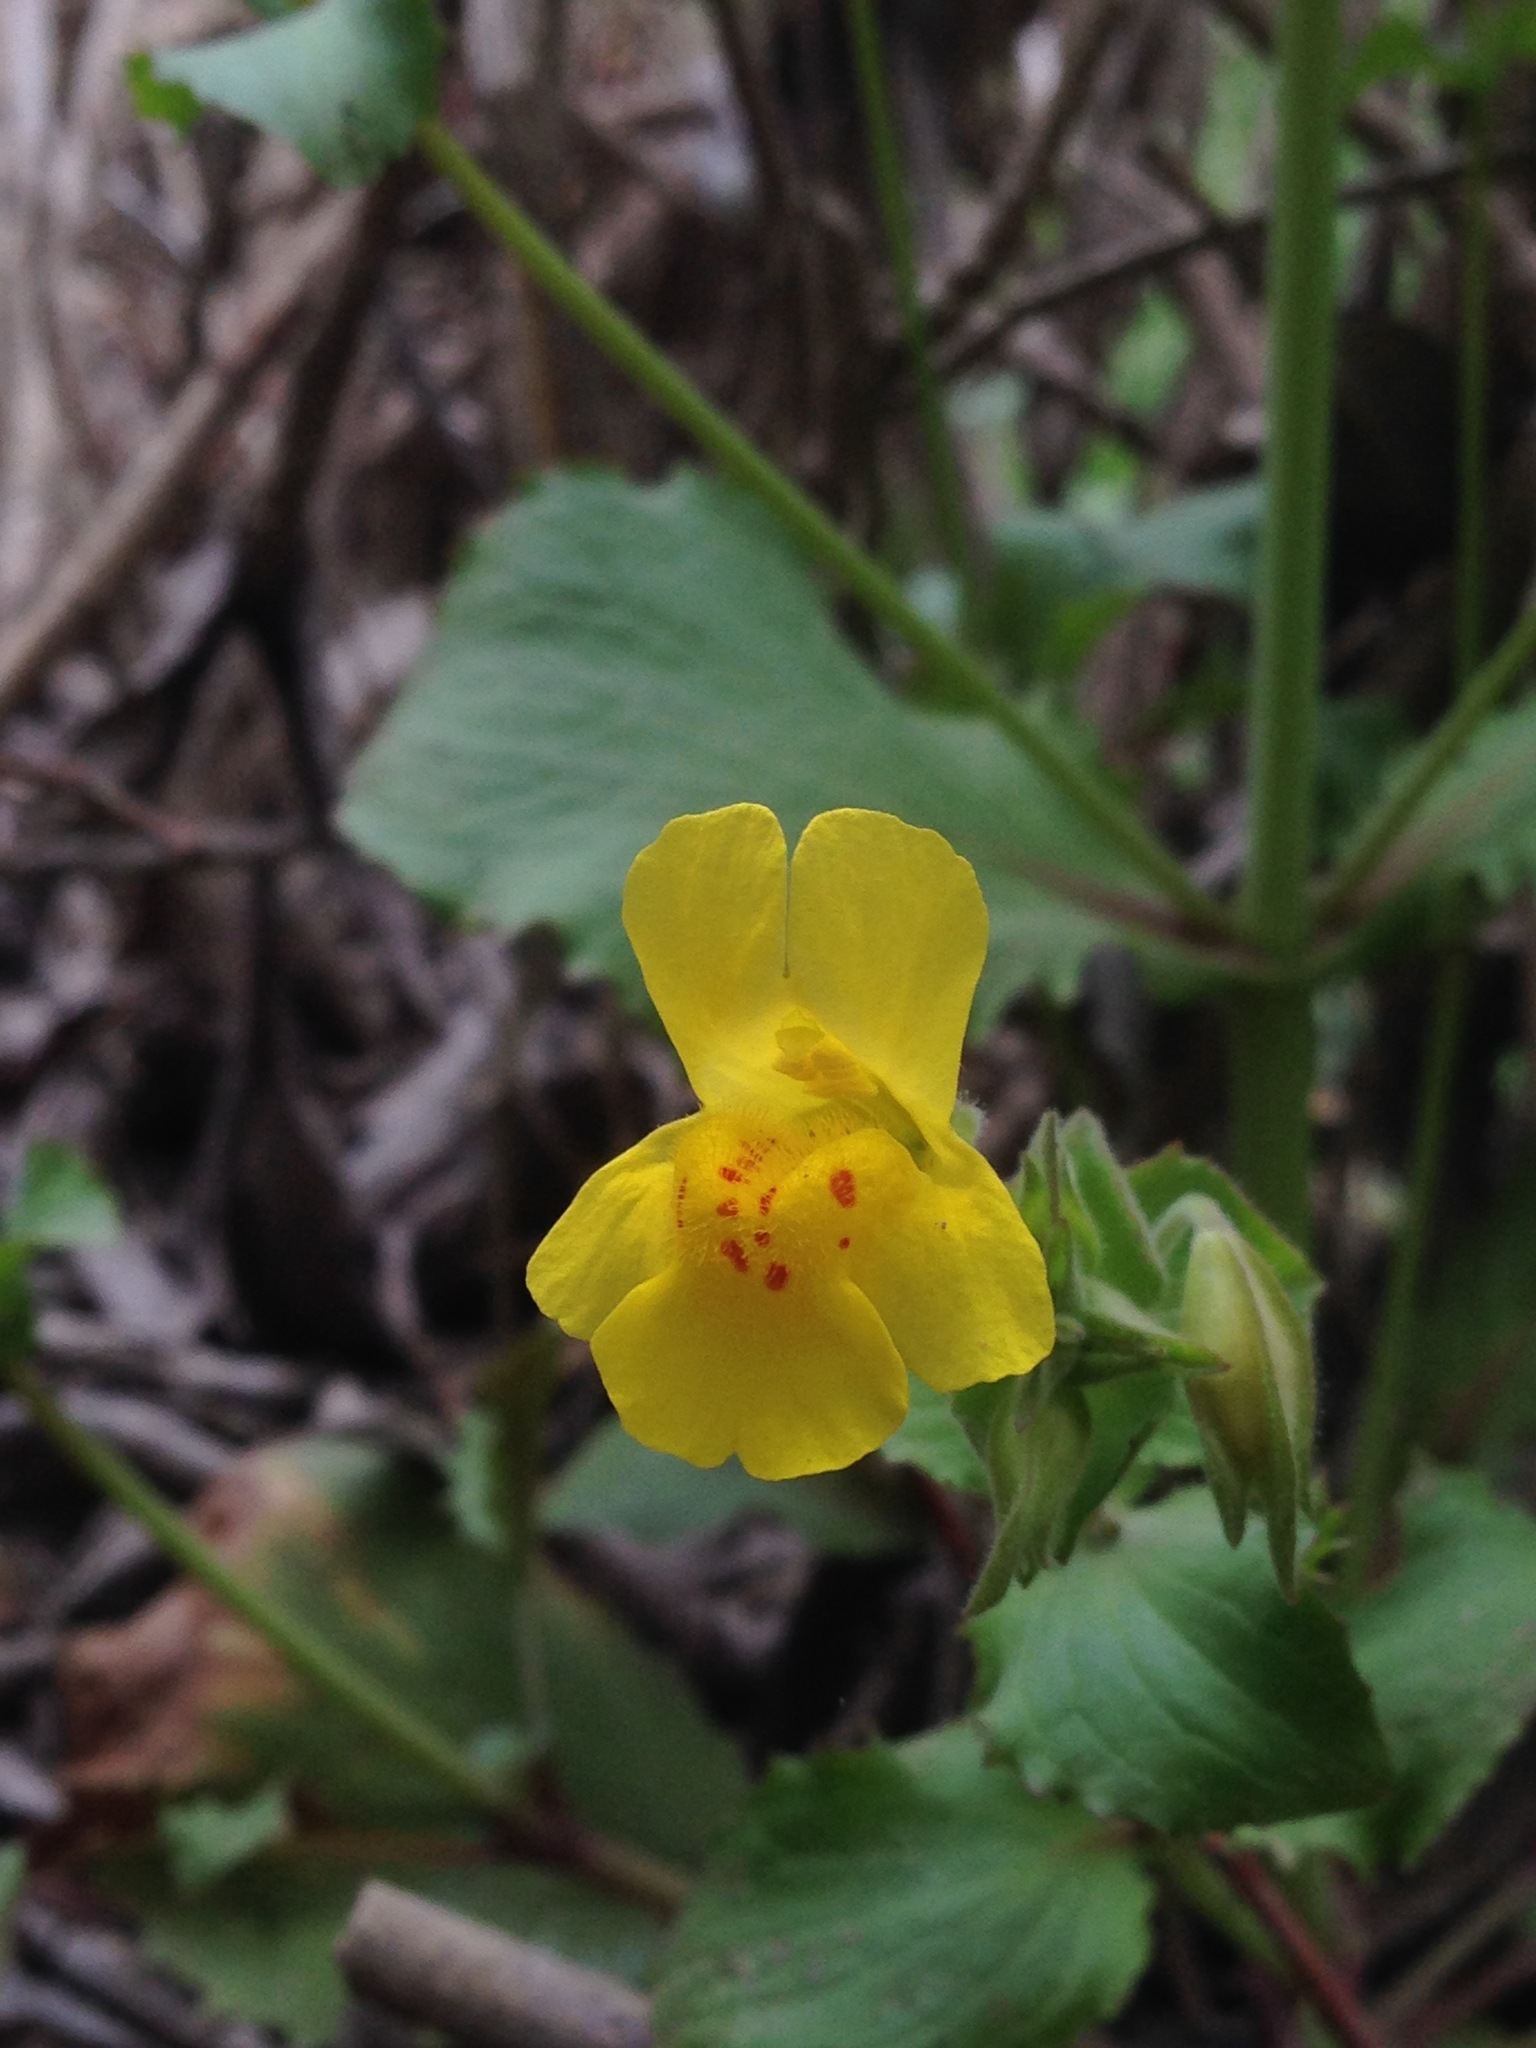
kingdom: Plantae
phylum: Tracheophyta
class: Magnoliopsida
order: Lamiales
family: Phrymaceae
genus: Erythranthe
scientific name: Erythranthe guttata
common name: Monkeyflower
